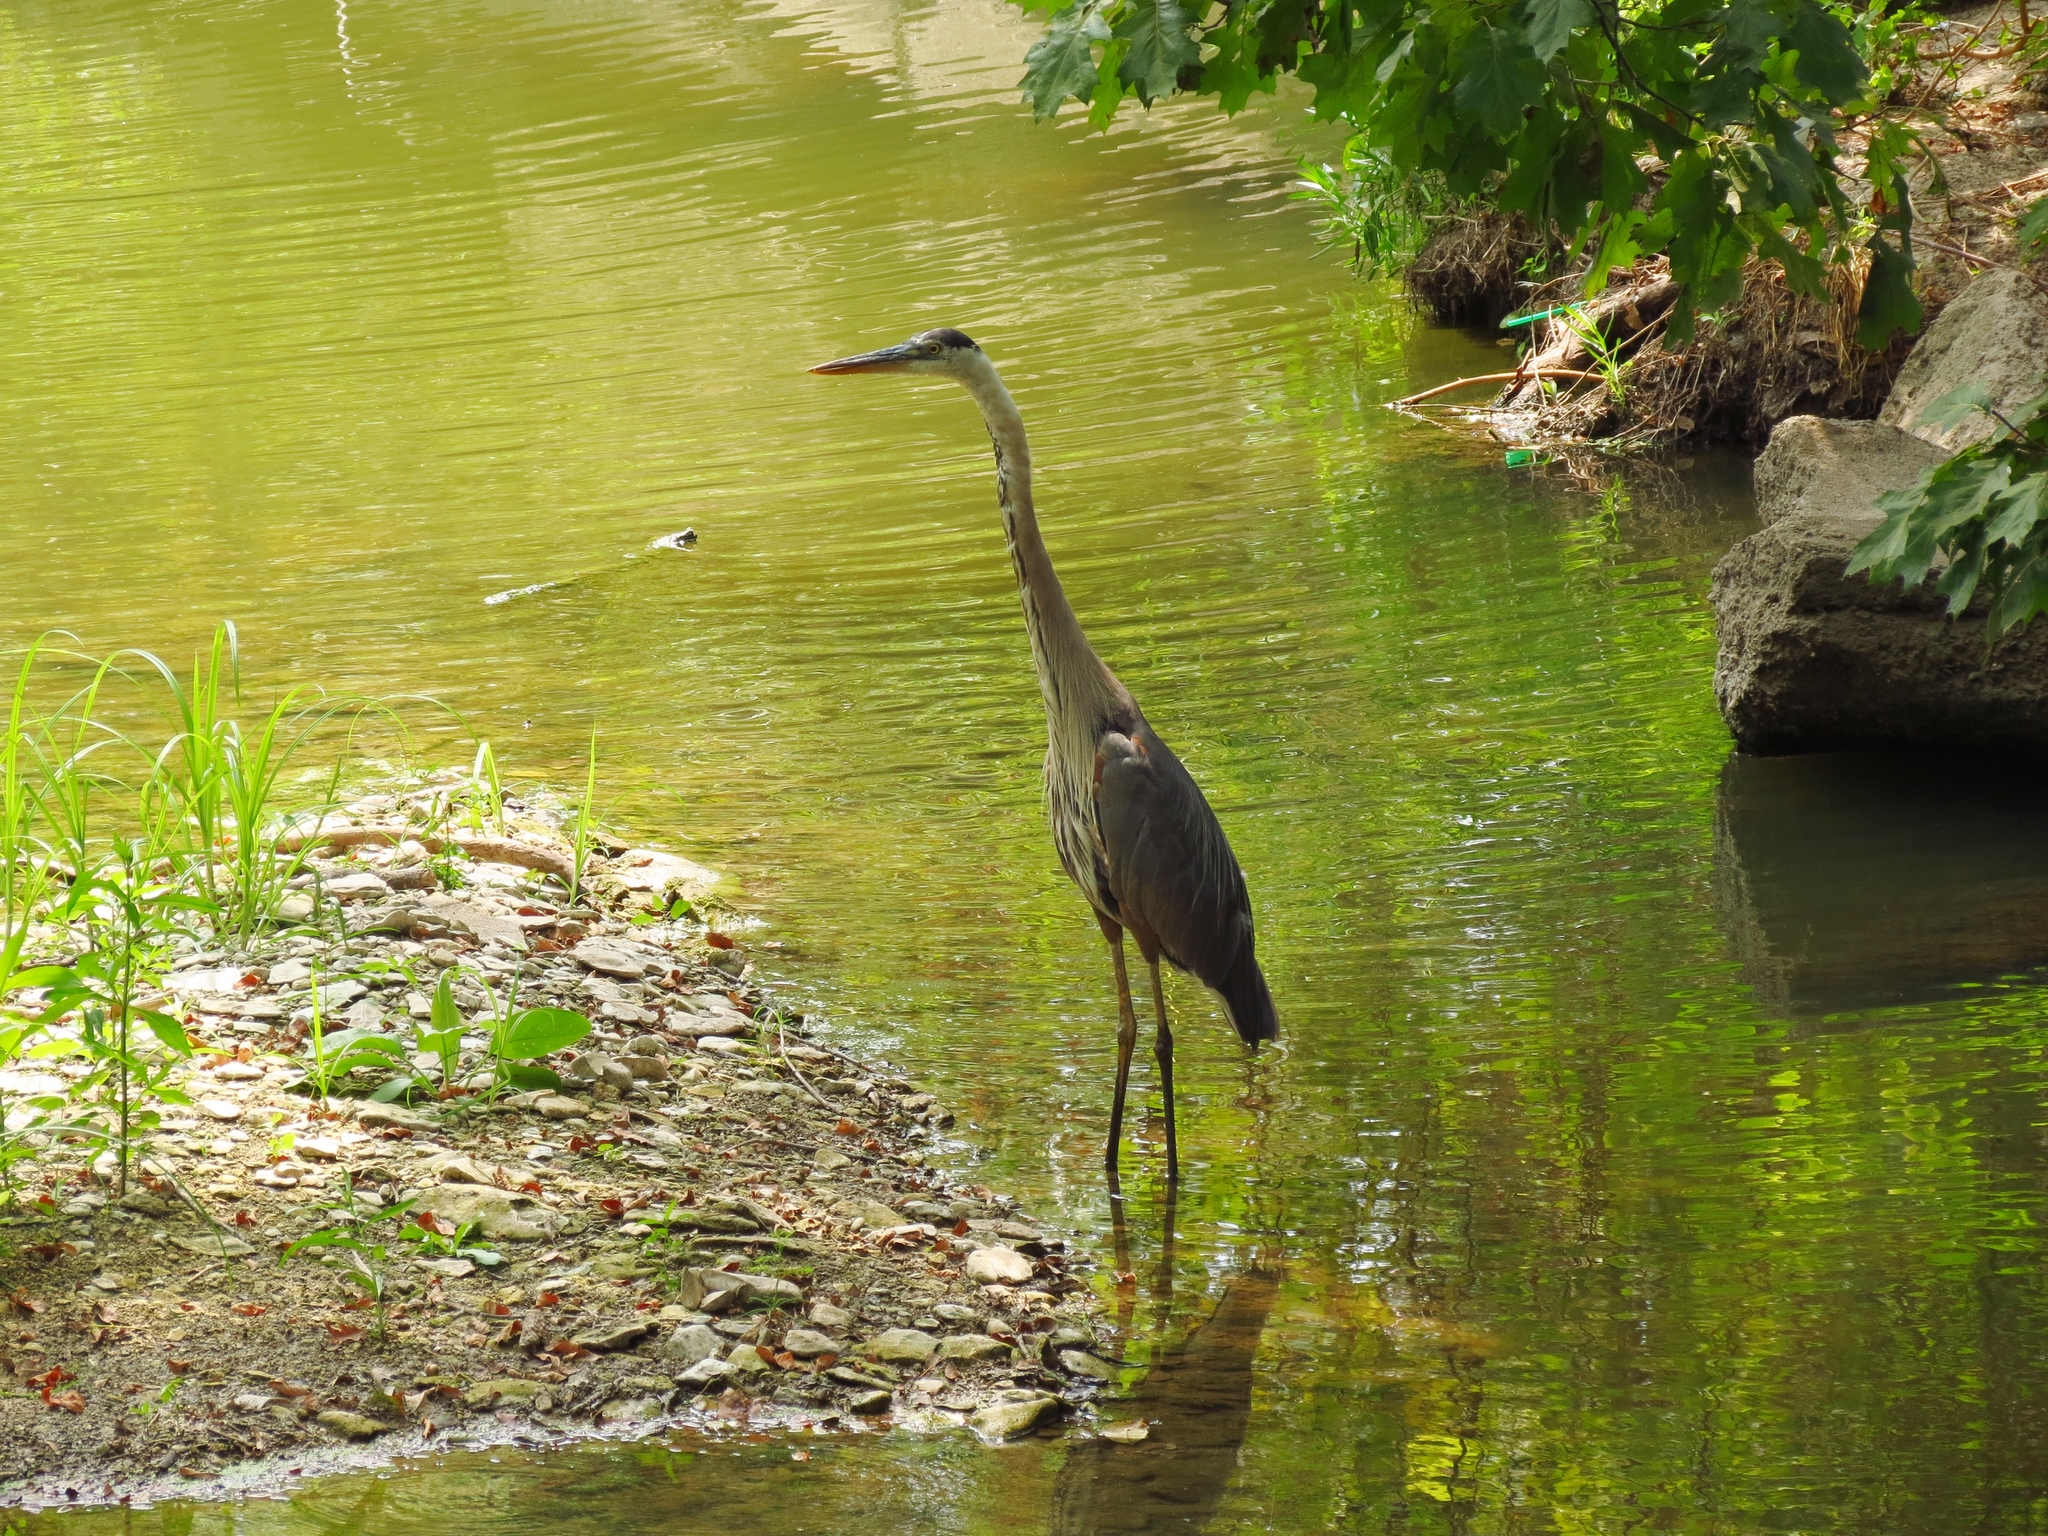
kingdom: Animalia
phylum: Chordata
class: Aves
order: Pelecaniformes
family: Ardeidae
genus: Ardea
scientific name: Ardea herodias
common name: Great blue heron
